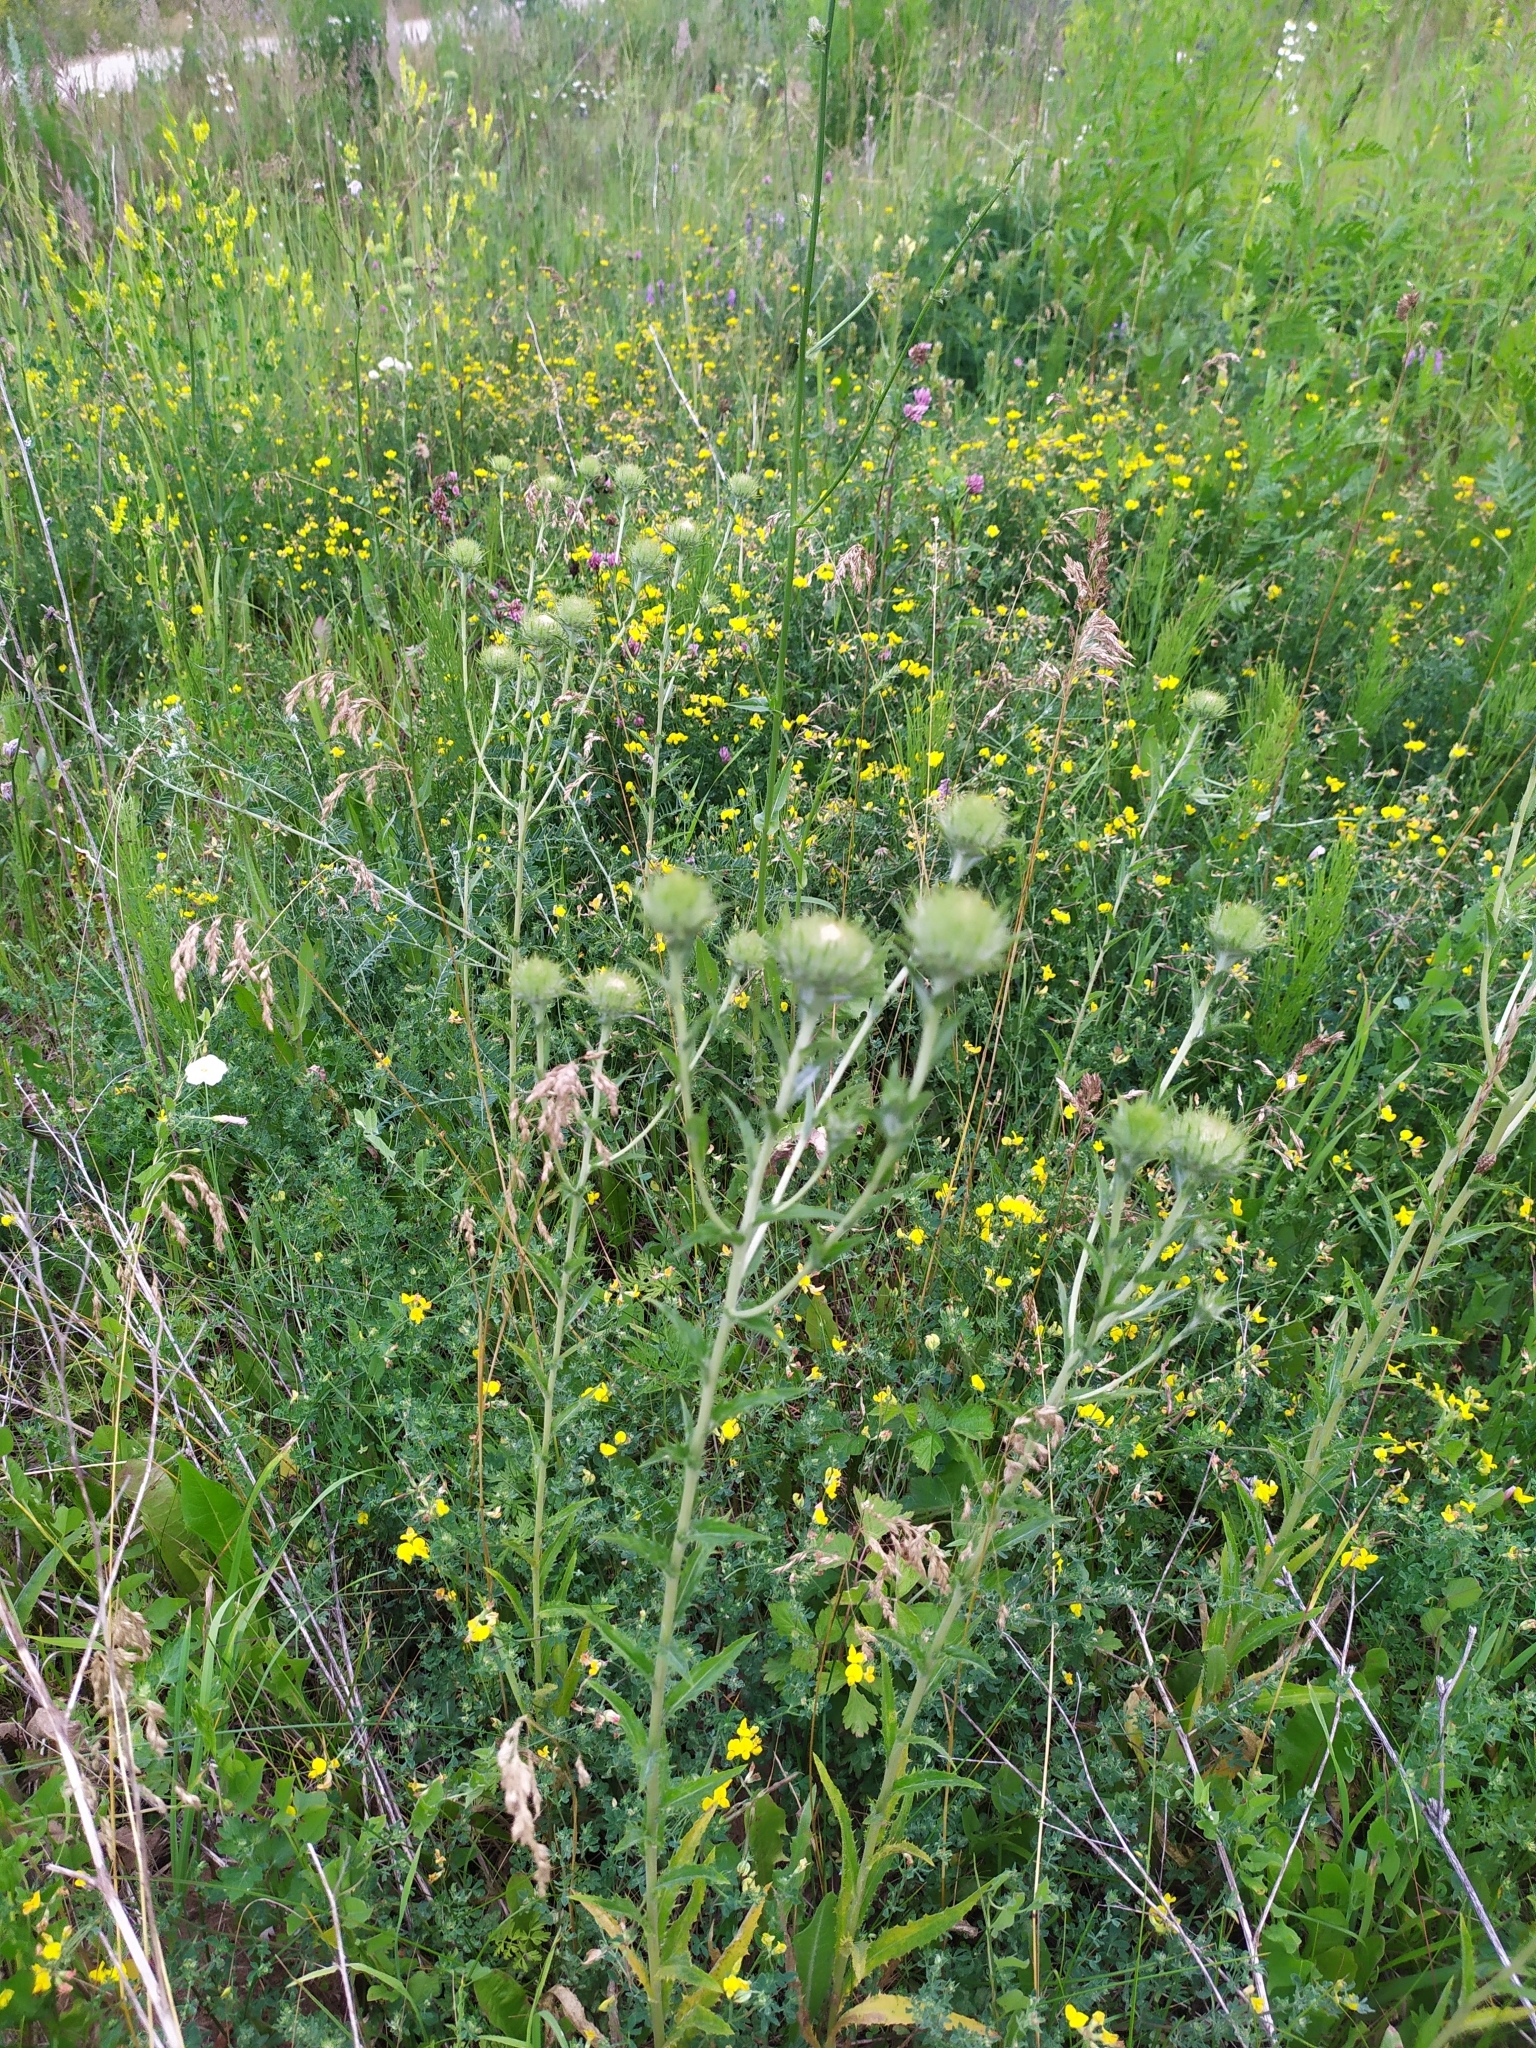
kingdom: Plantae
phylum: Tracheophyta
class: Magnoliopsida
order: Asterales
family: Asteraceae
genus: Carlina
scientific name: Carlina biebersteinii
